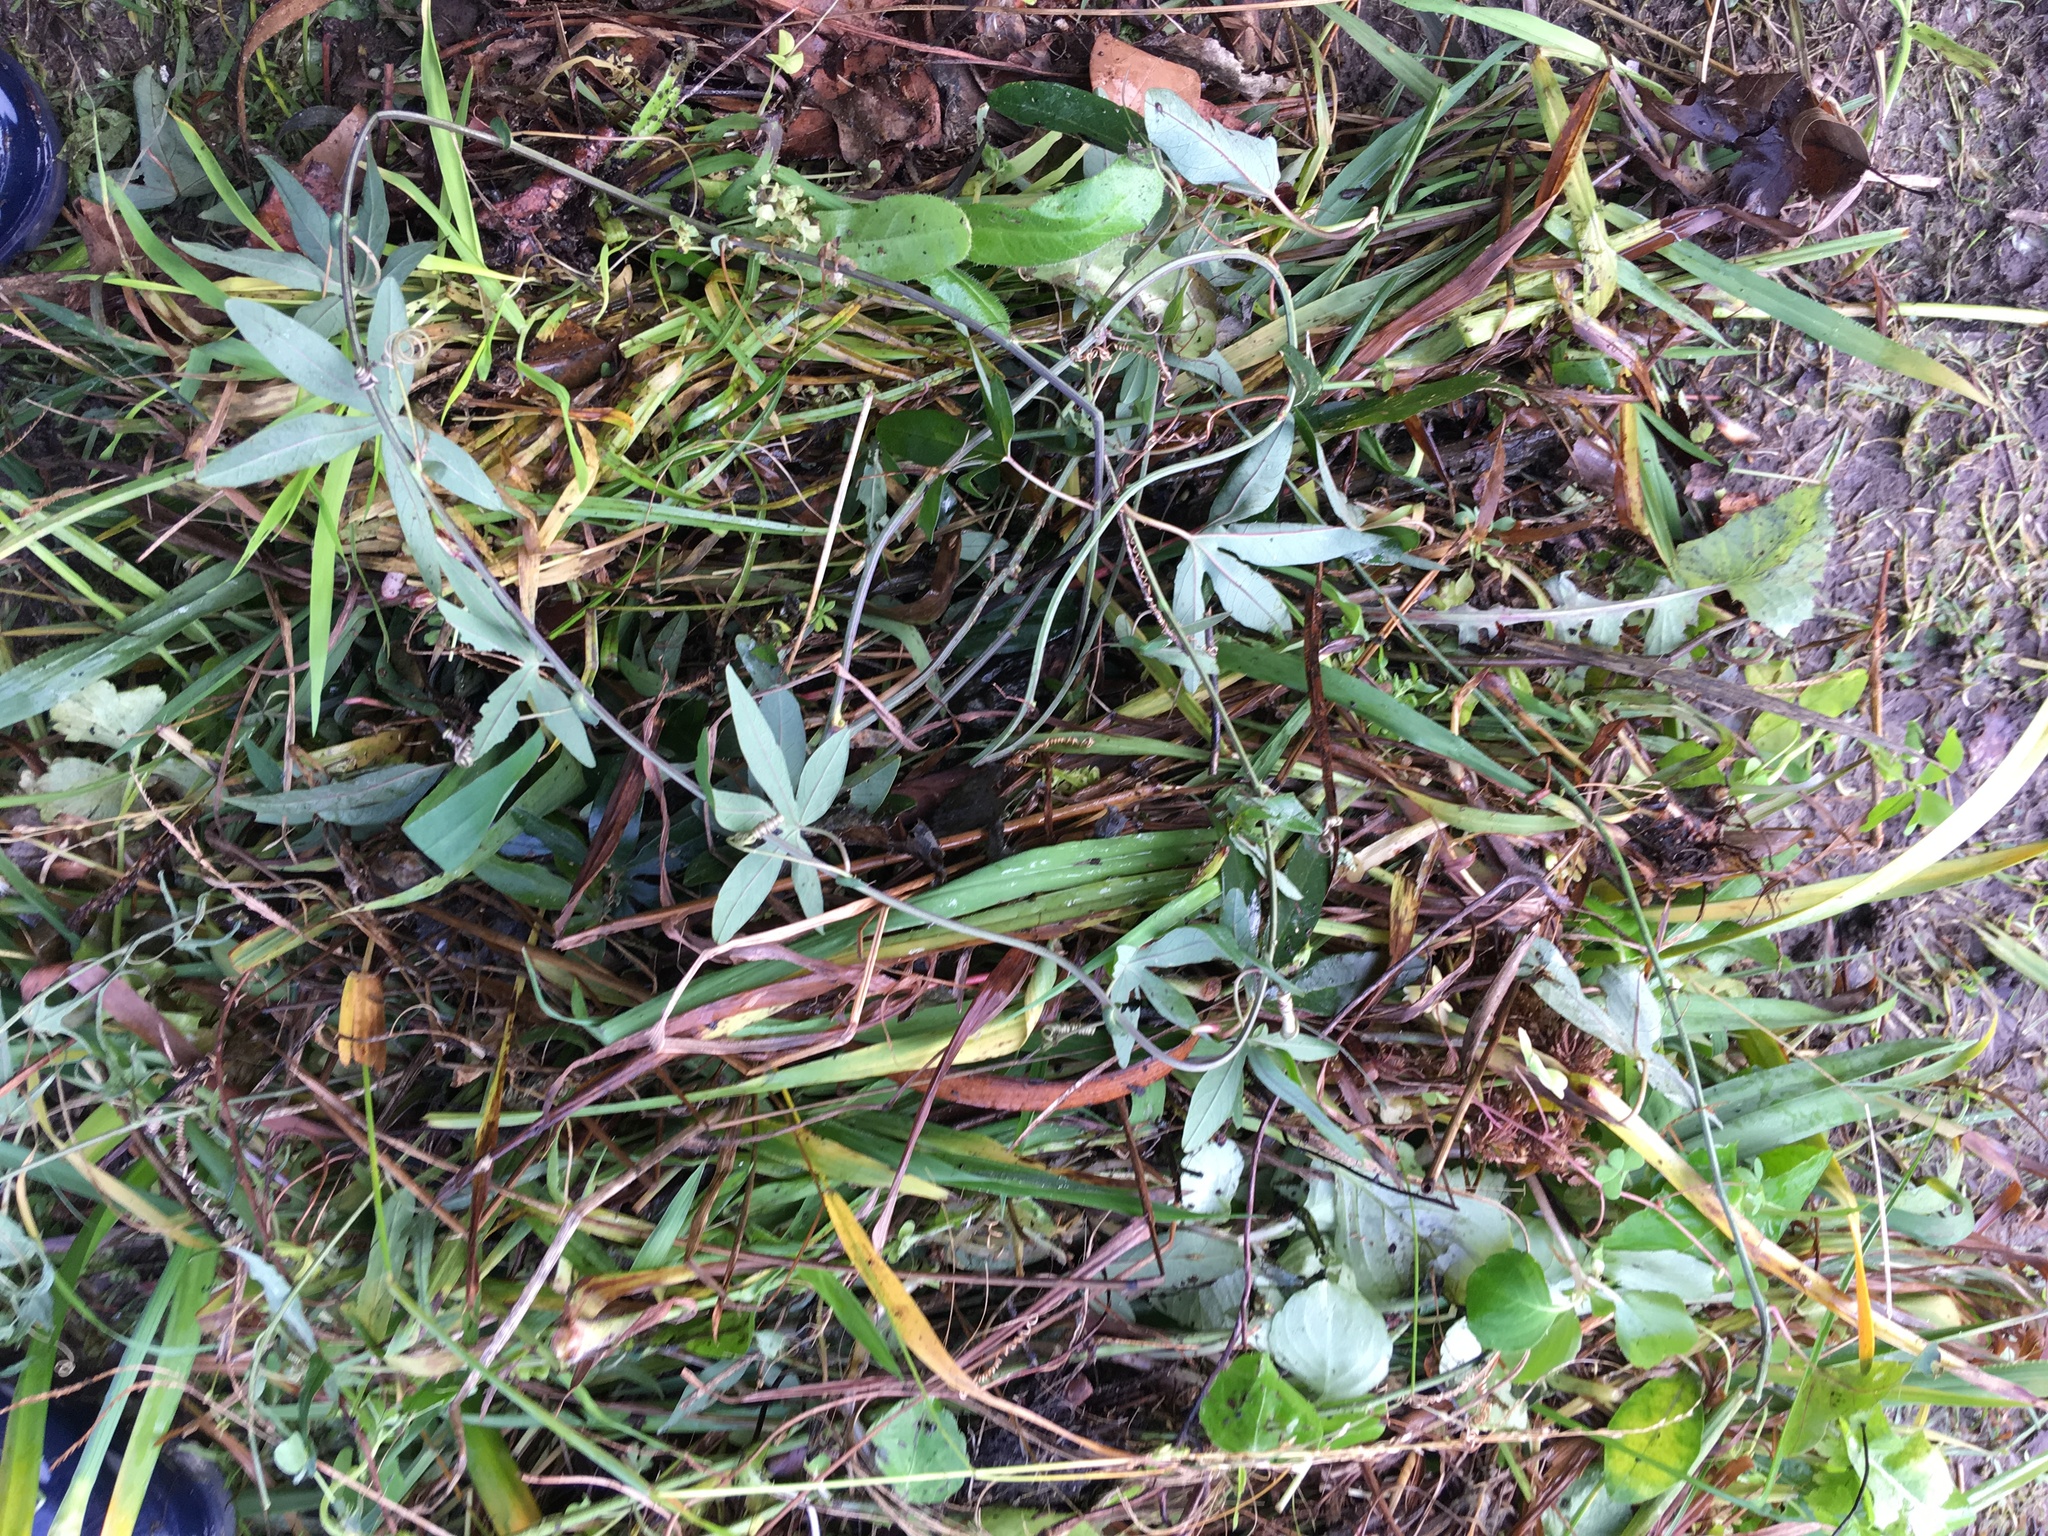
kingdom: Plantae
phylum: Tracheophyta
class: Magnoliopsida
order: Malpighiales
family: Passifloraceae
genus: Passiflora
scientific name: Passiflora caerulea
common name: Blue passionflower
